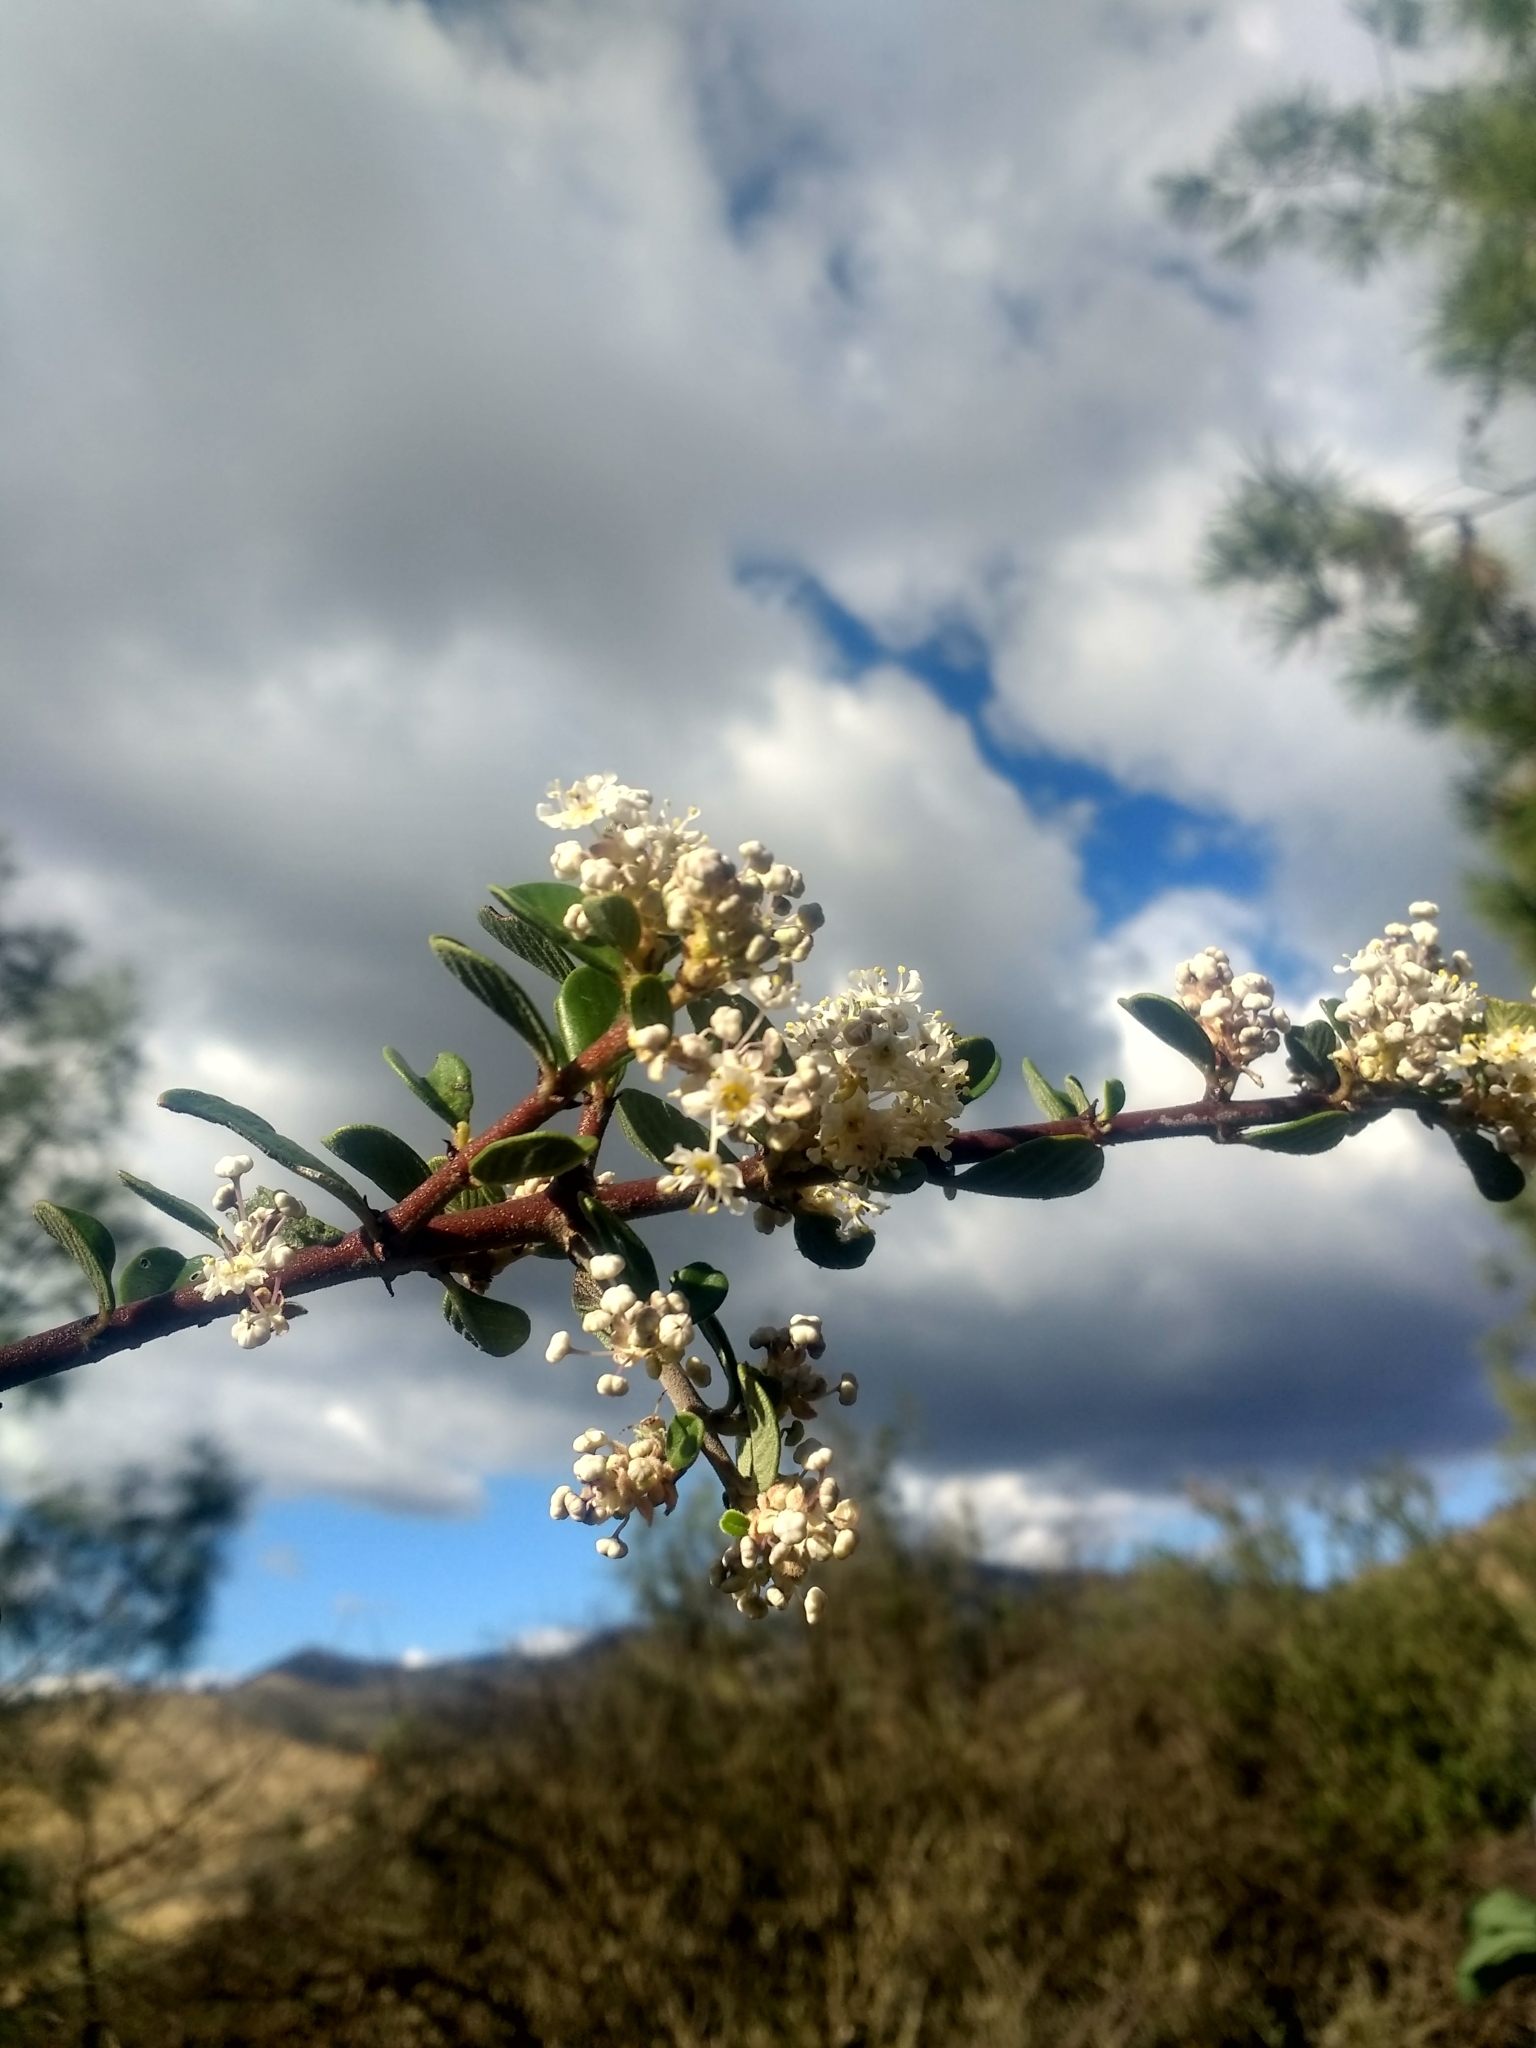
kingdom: Plantae
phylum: Tracheophyta
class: Magnoliopsida
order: Rosales
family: Rhamnaceae
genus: Ceanothus
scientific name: Ceanothus cuneatus
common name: Cuneate ceanothus
